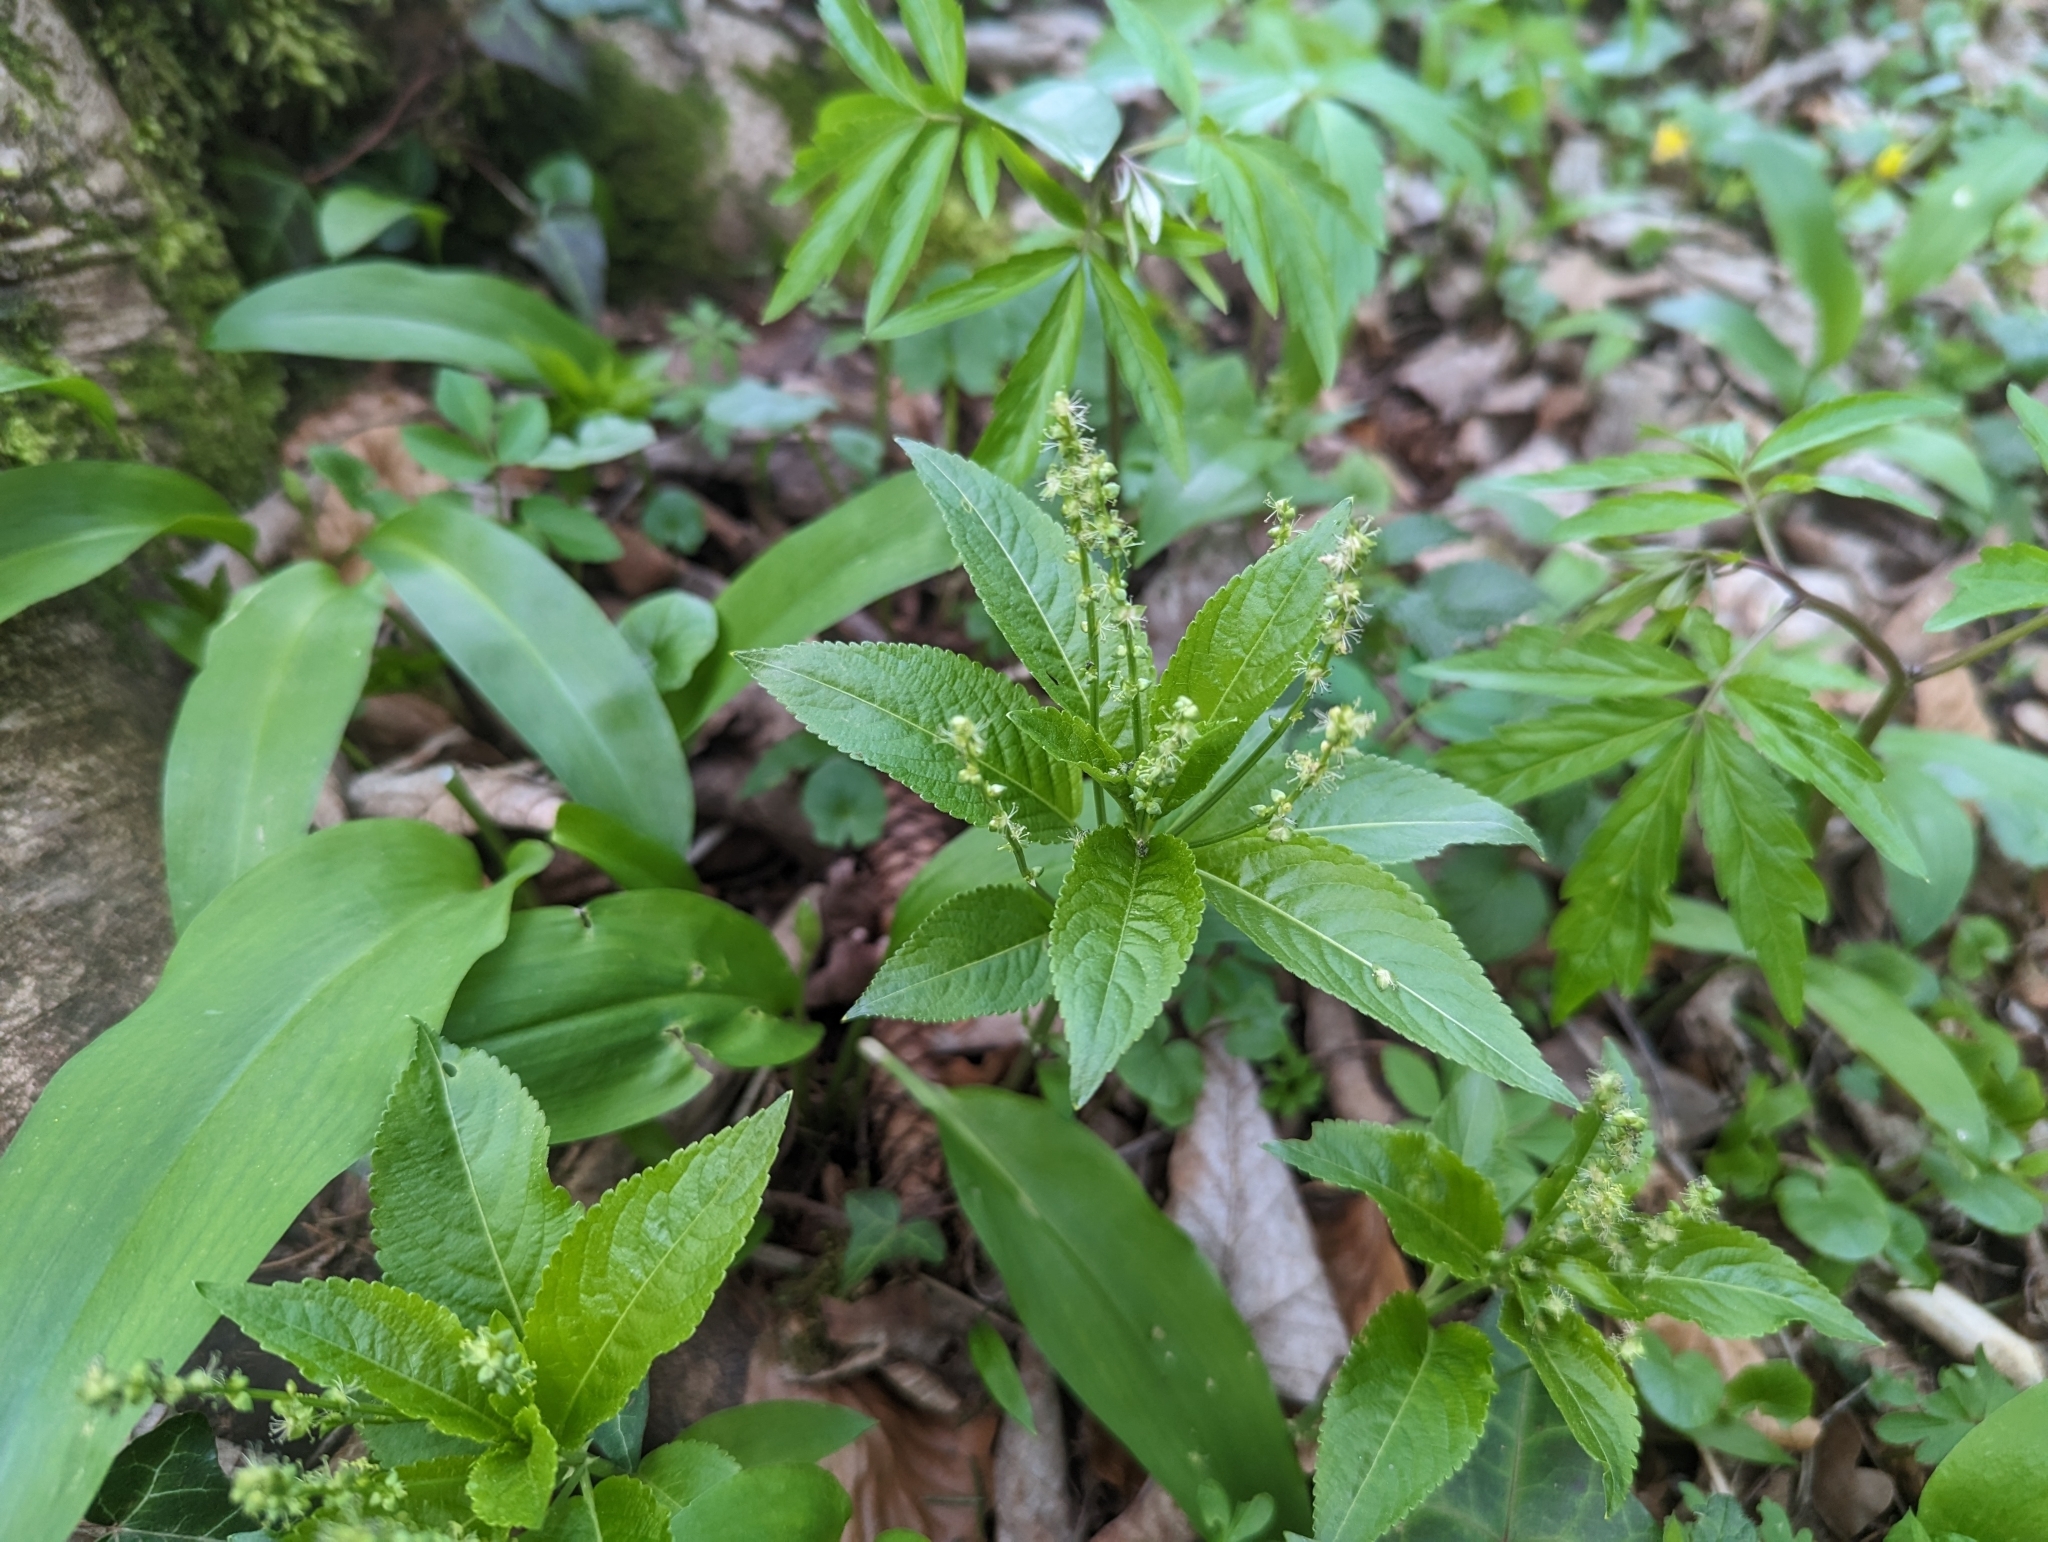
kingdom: Plantae
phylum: Tracheophyta
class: Magnoliopsida
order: Malpighiales
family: Euphorbiaceae
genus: Mercurialis
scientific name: Mercurialis perennis
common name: Dog mercury
